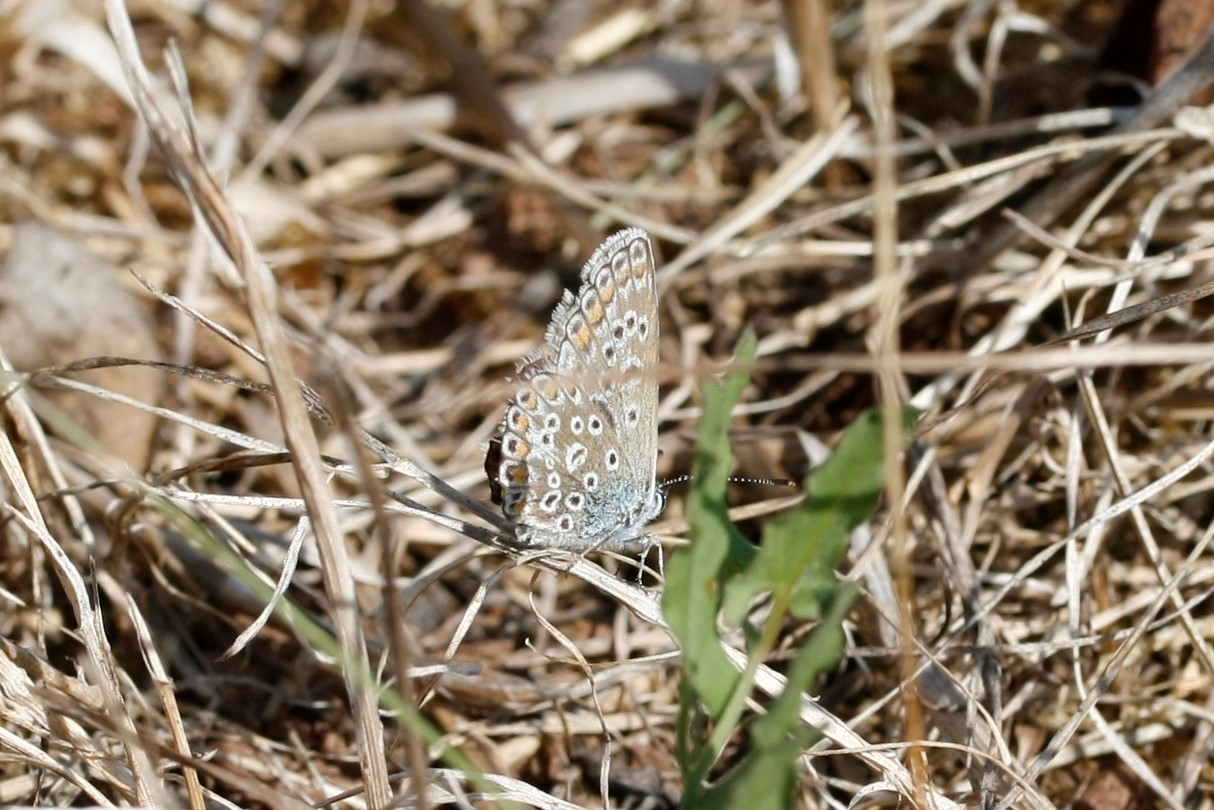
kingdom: Animalia
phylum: Arthropoda
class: Insecta
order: Lepidoptera
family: Lycaenidae
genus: Polyommatus
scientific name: Polyommatus icarus
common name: Common blue
